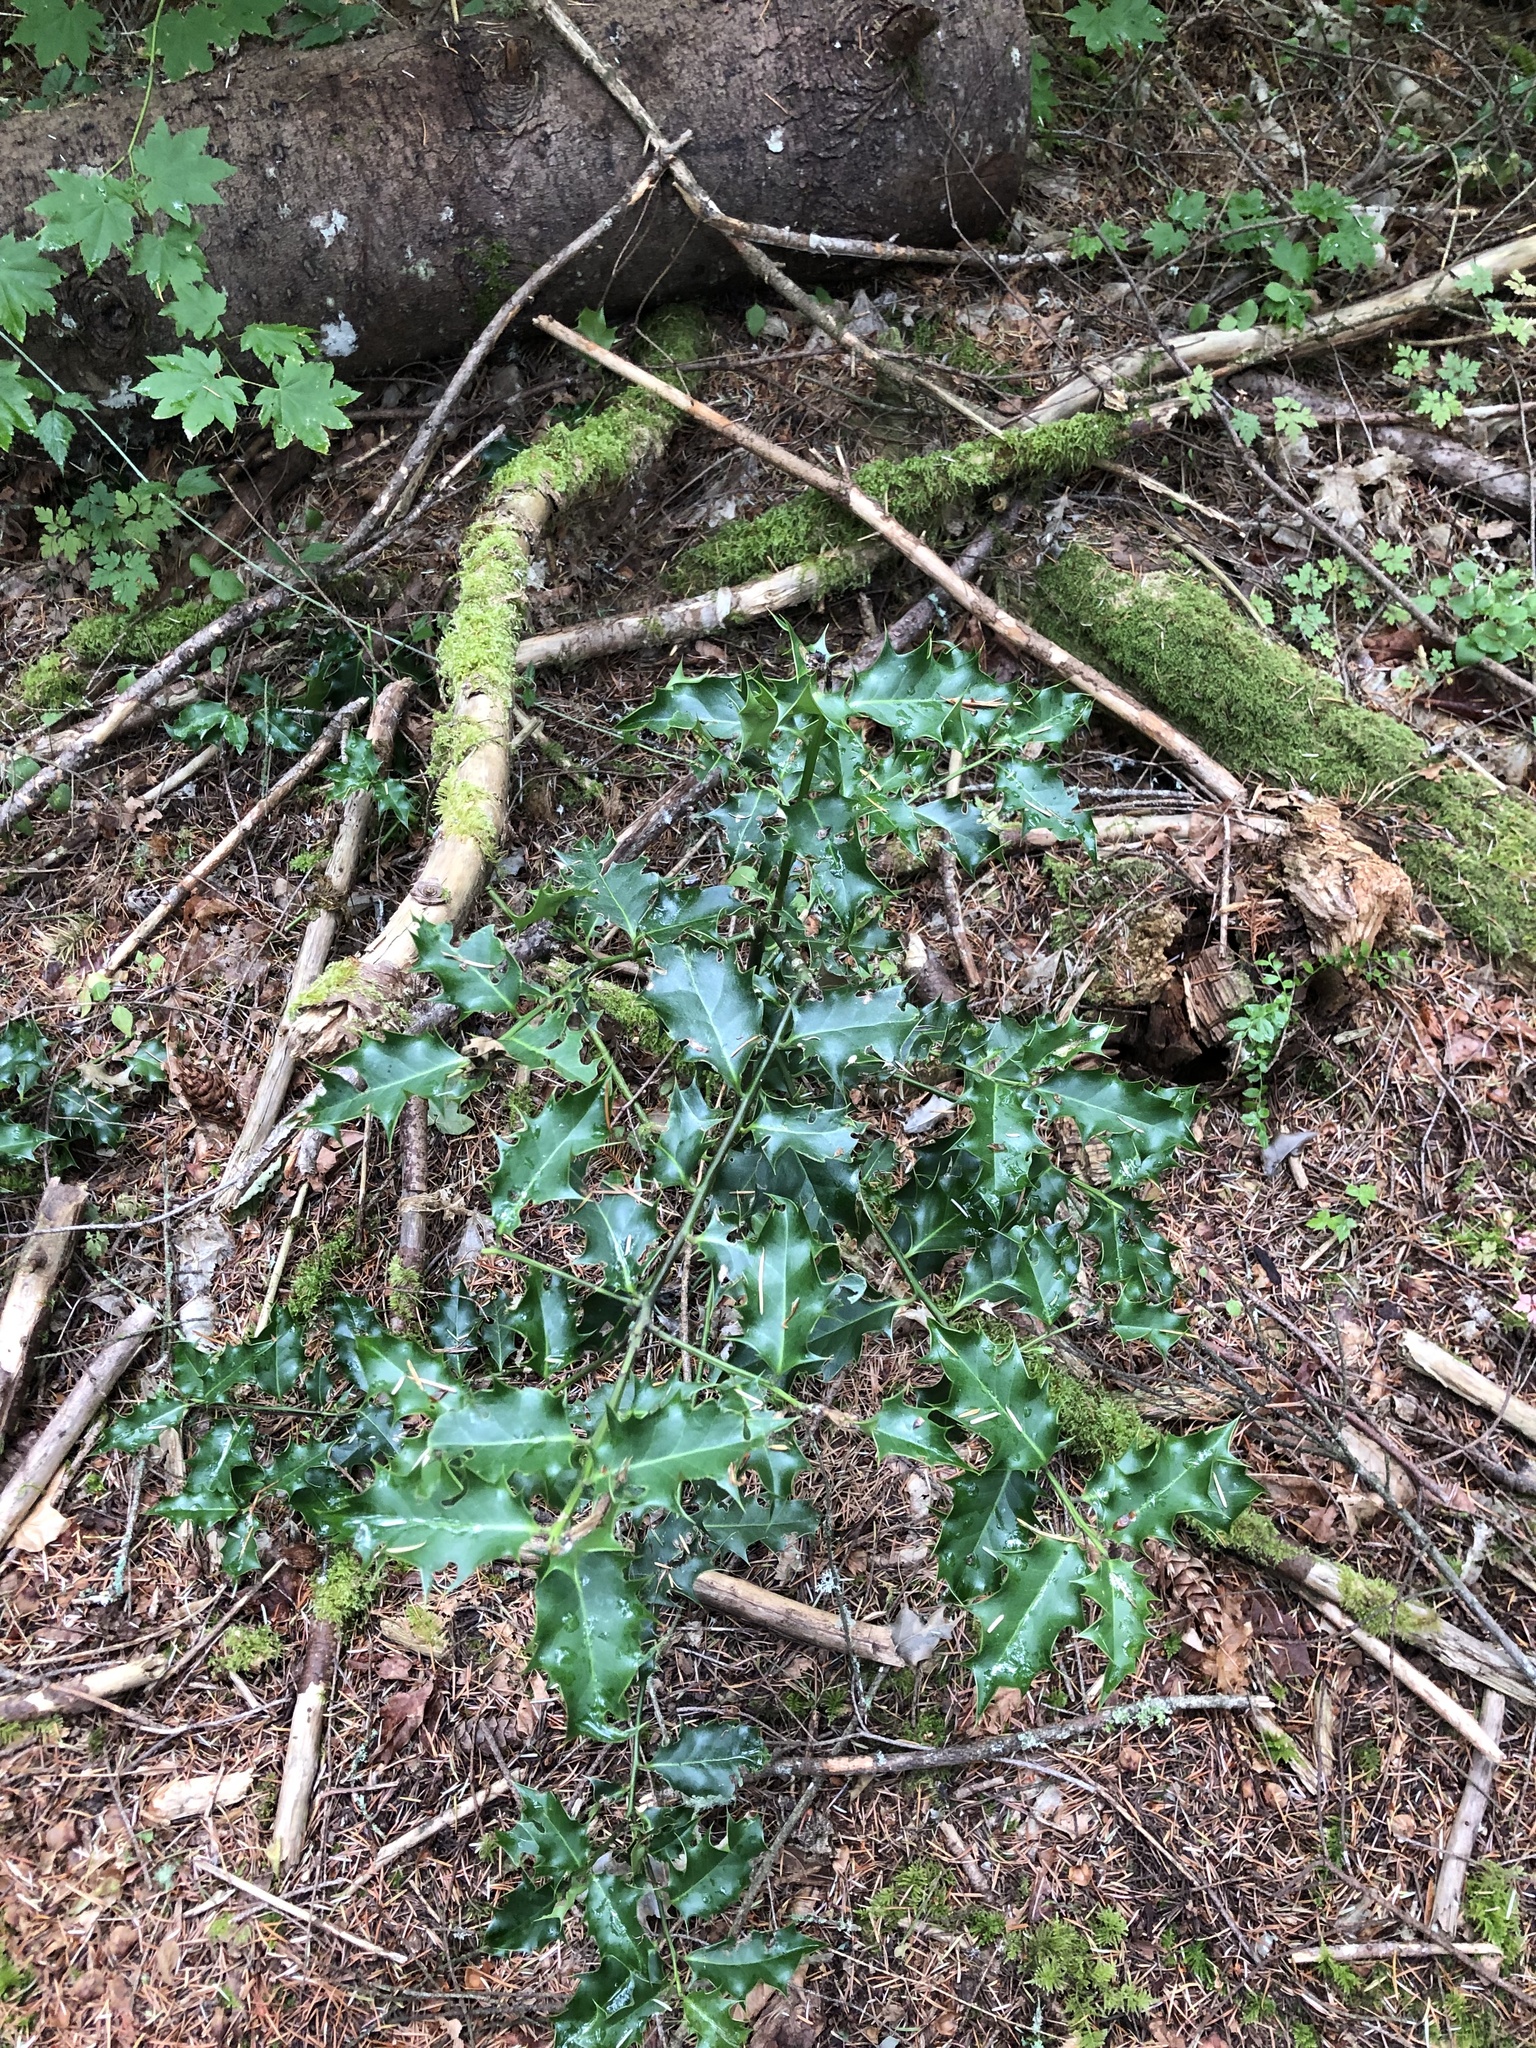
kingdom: Plantae
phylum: Tracheophyta
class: Magnoliopsida
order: Aquifoliales
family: Aquifoliaceae
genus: Ilex
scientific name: Ilex aquifolium
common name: English holly
